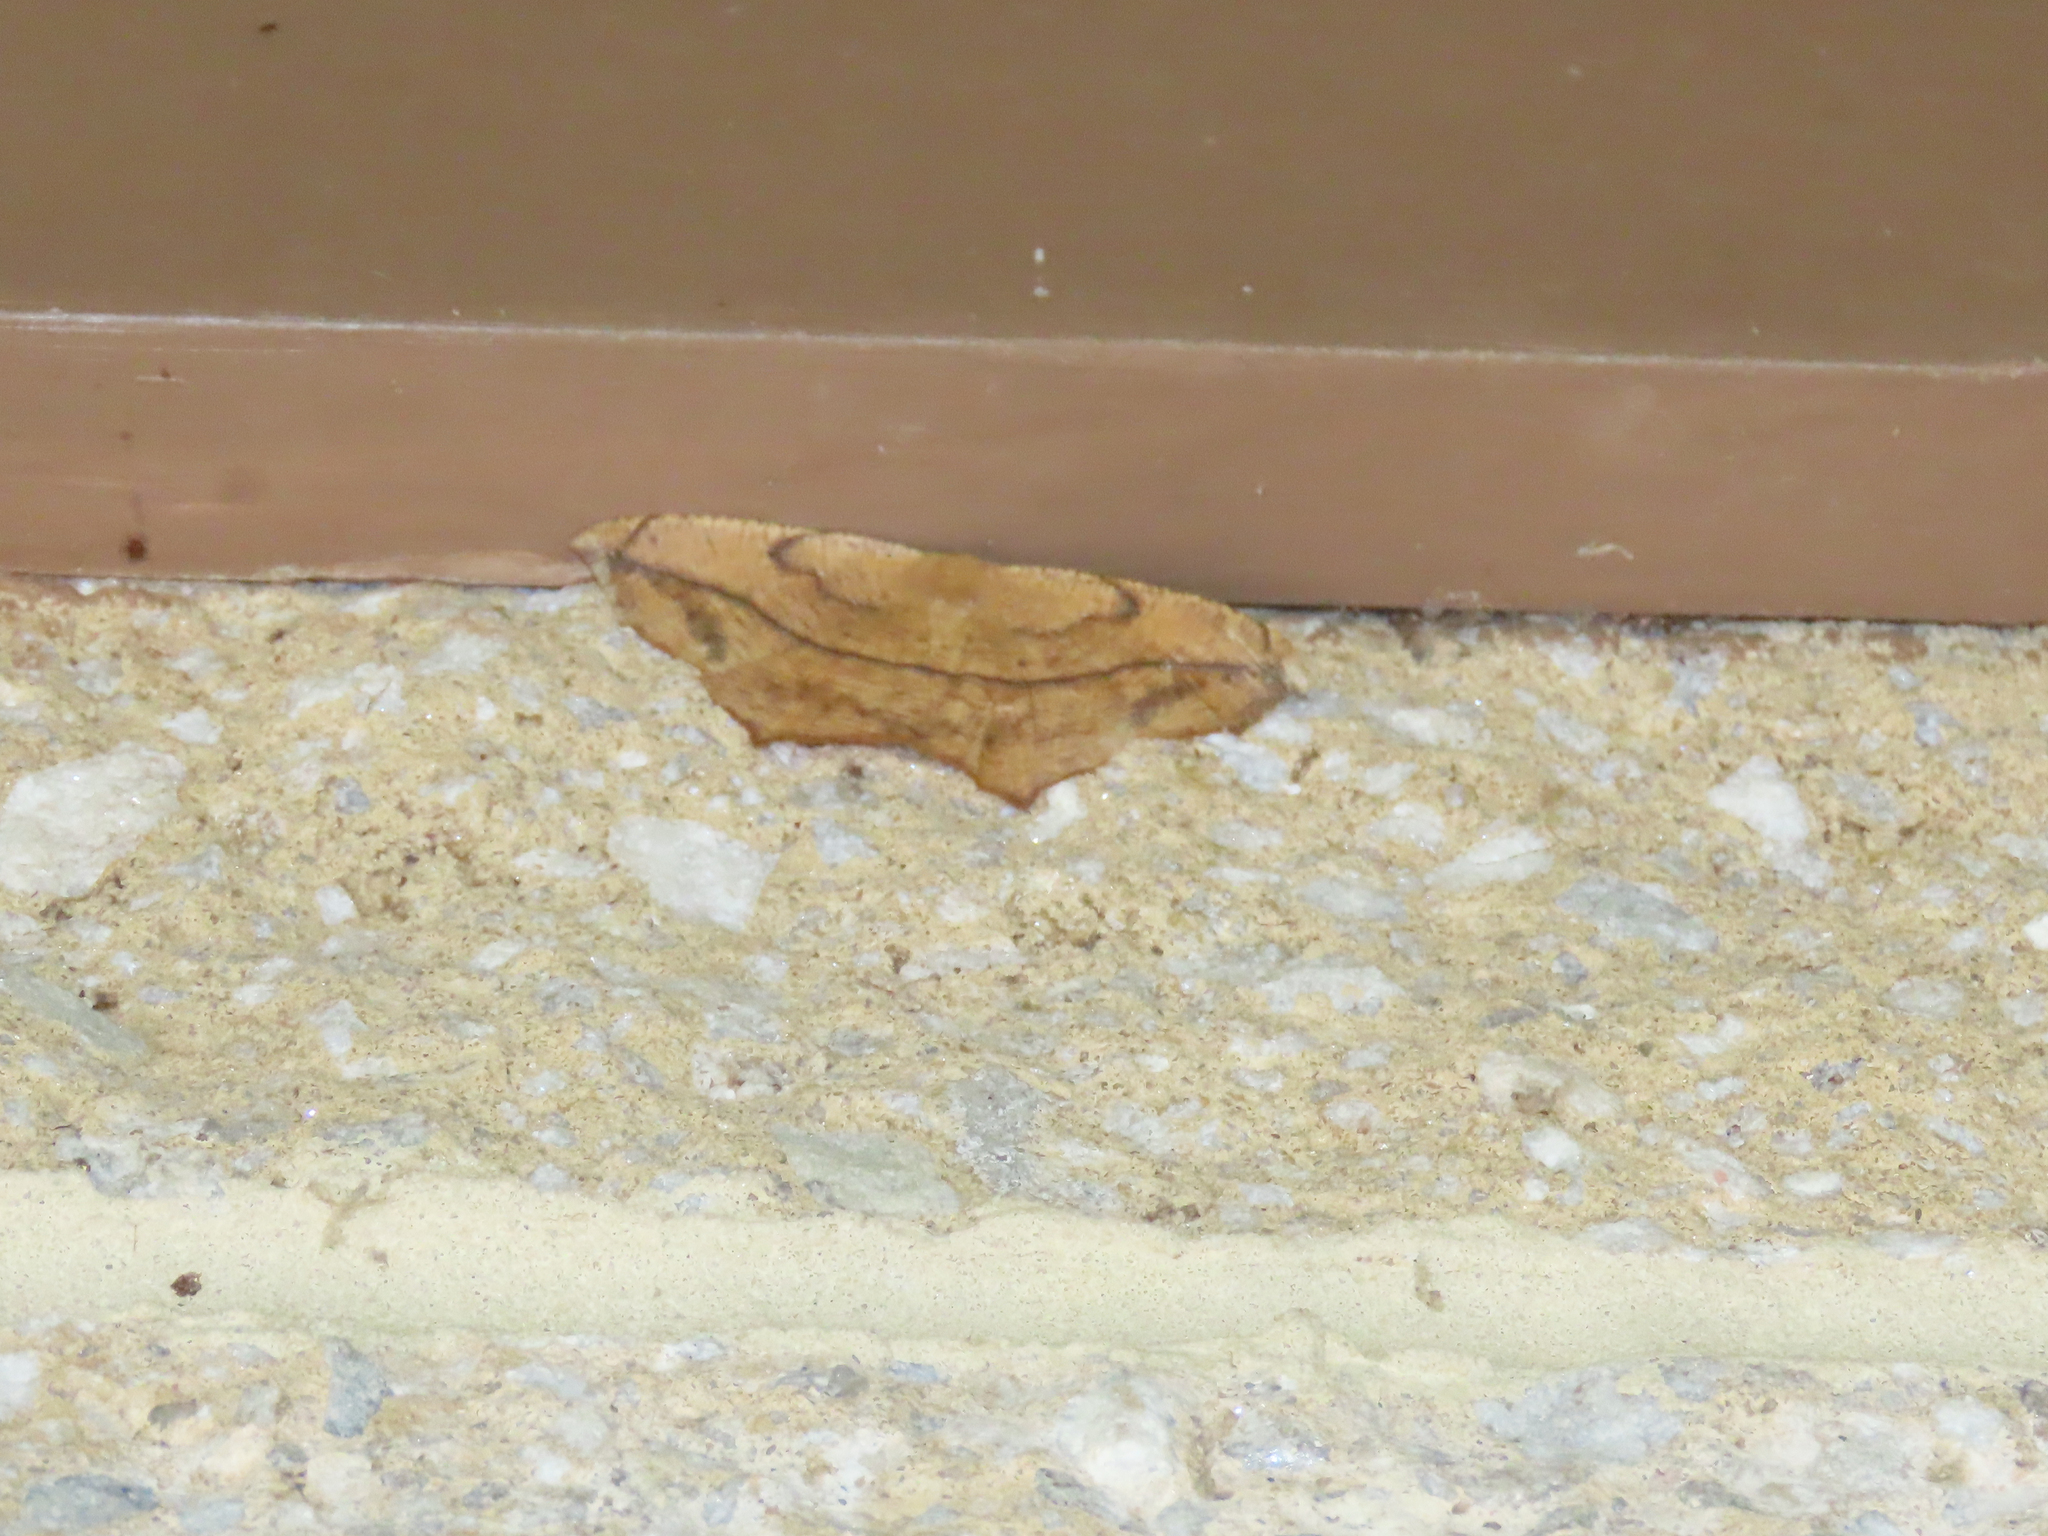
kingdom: Animalia
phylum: Arthropoda
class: Insecta
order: Lepidoptera
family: Geometridae
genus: Prochoerodes
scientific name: Prochoerodes lineola
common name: Large maple spanworm
